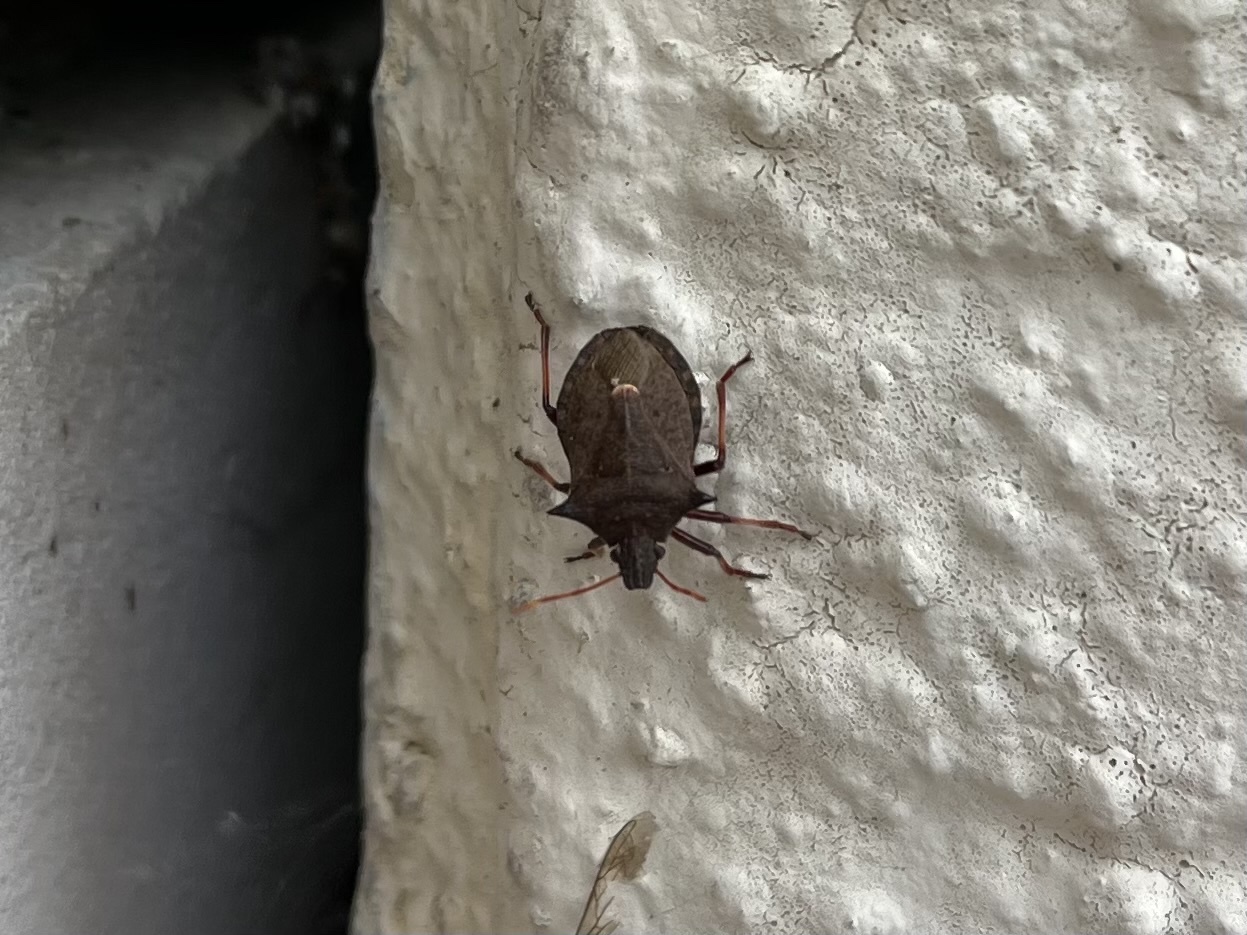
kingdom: Animalia
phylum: Arthropoda
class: Insecta
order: Hemiptera
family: Pentatomidae
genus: Picromerus
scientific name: Picromerus bidens
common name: Spiked shieldbug
